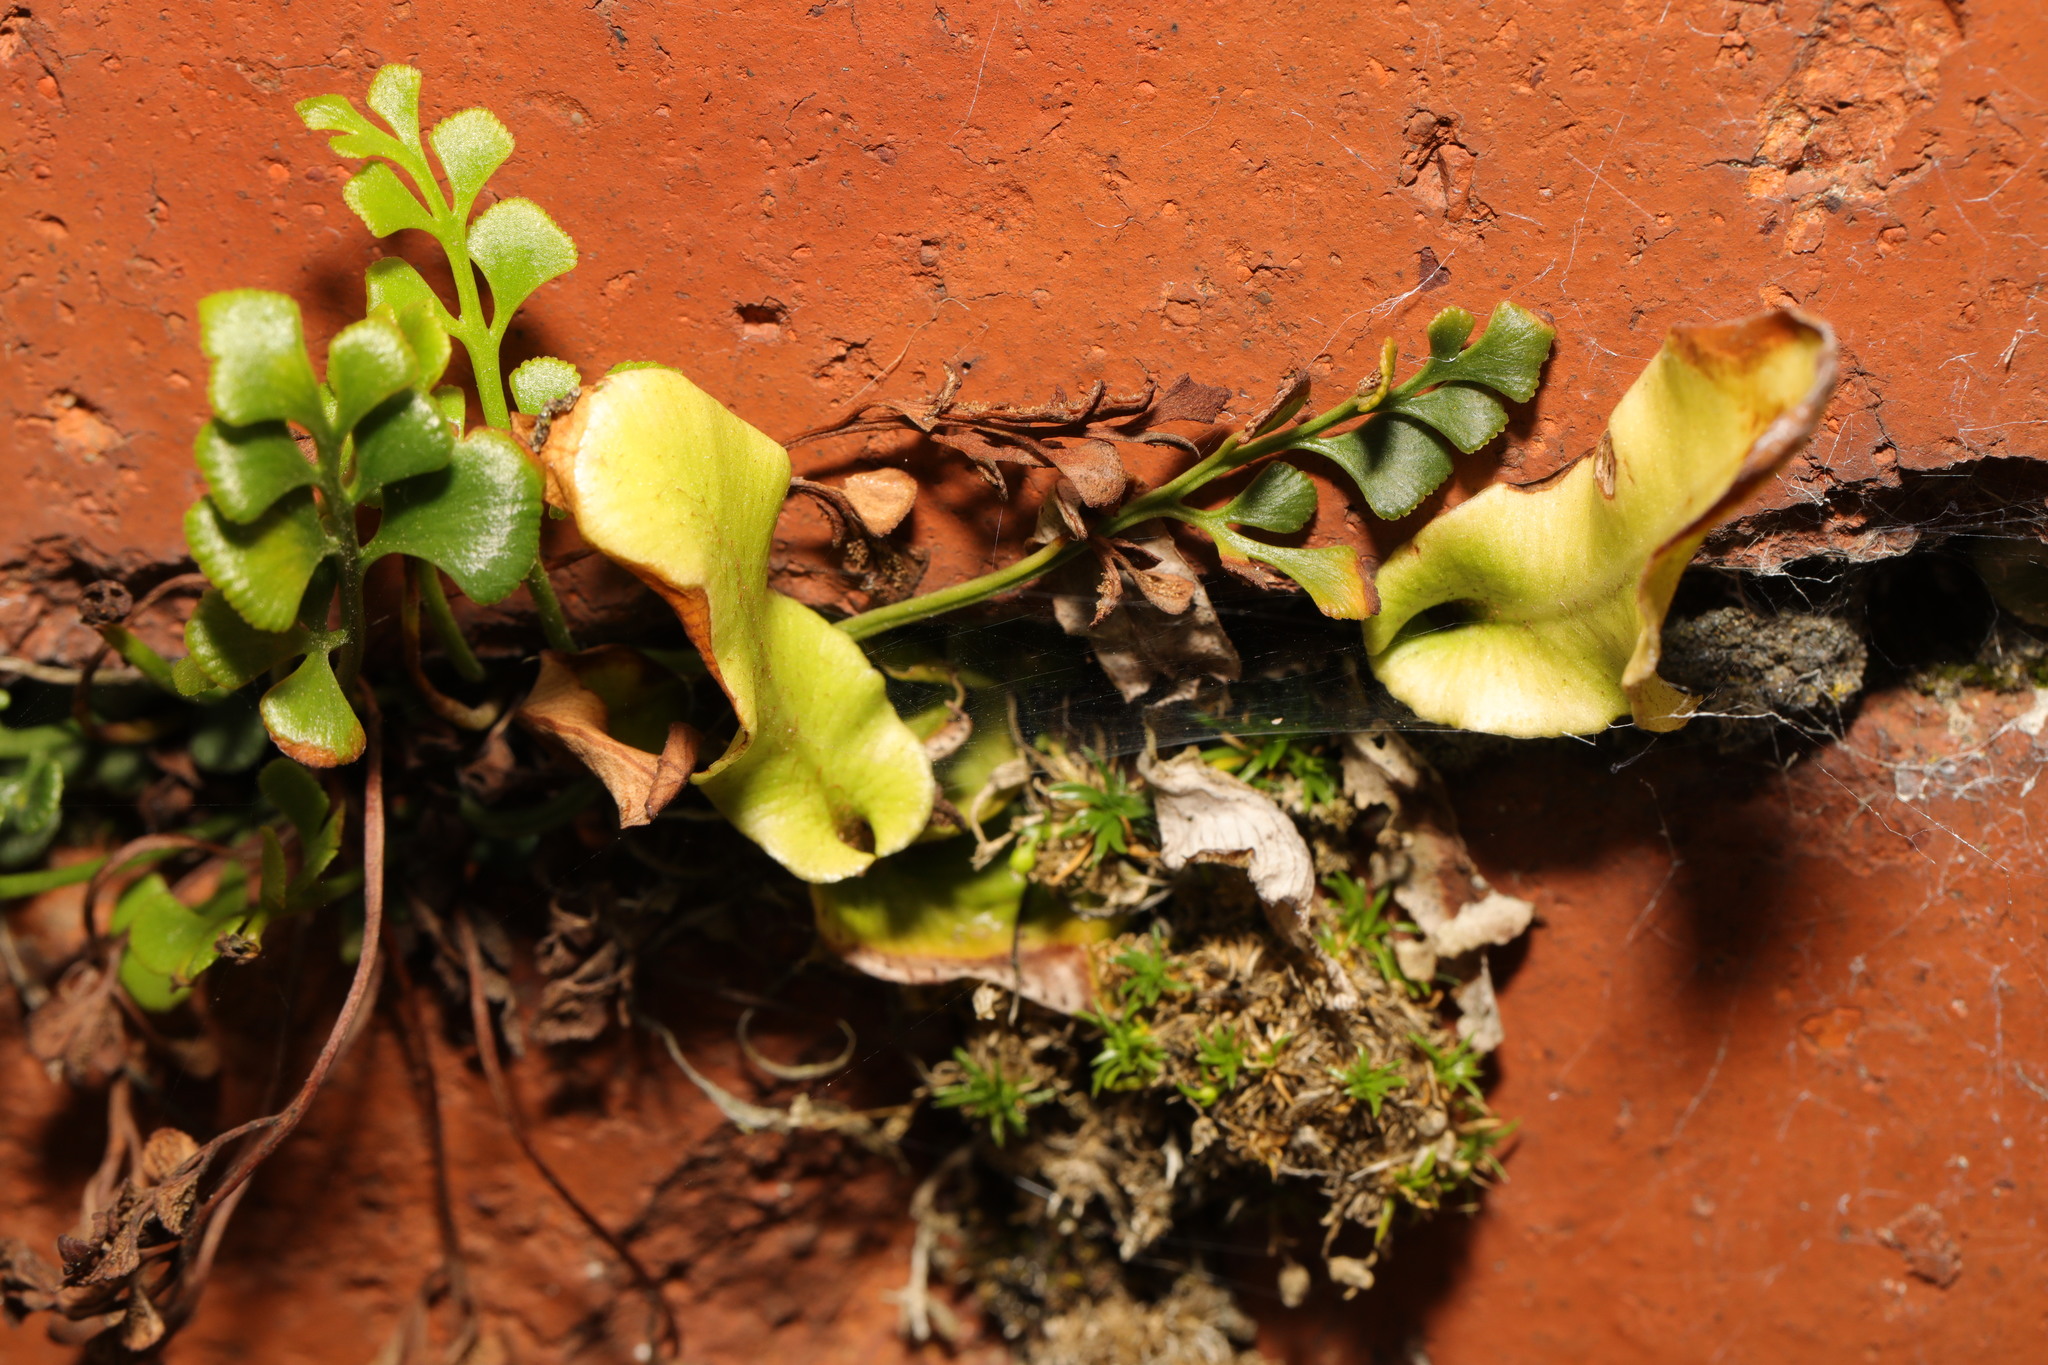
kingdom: Plantae
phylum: Tracheophyta
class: Polypodiopsida
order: Polypodiales
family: Aspleniaceae
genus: Asplenium
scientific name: Asplenium scolopendrium
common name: Hart's-tongue fern
